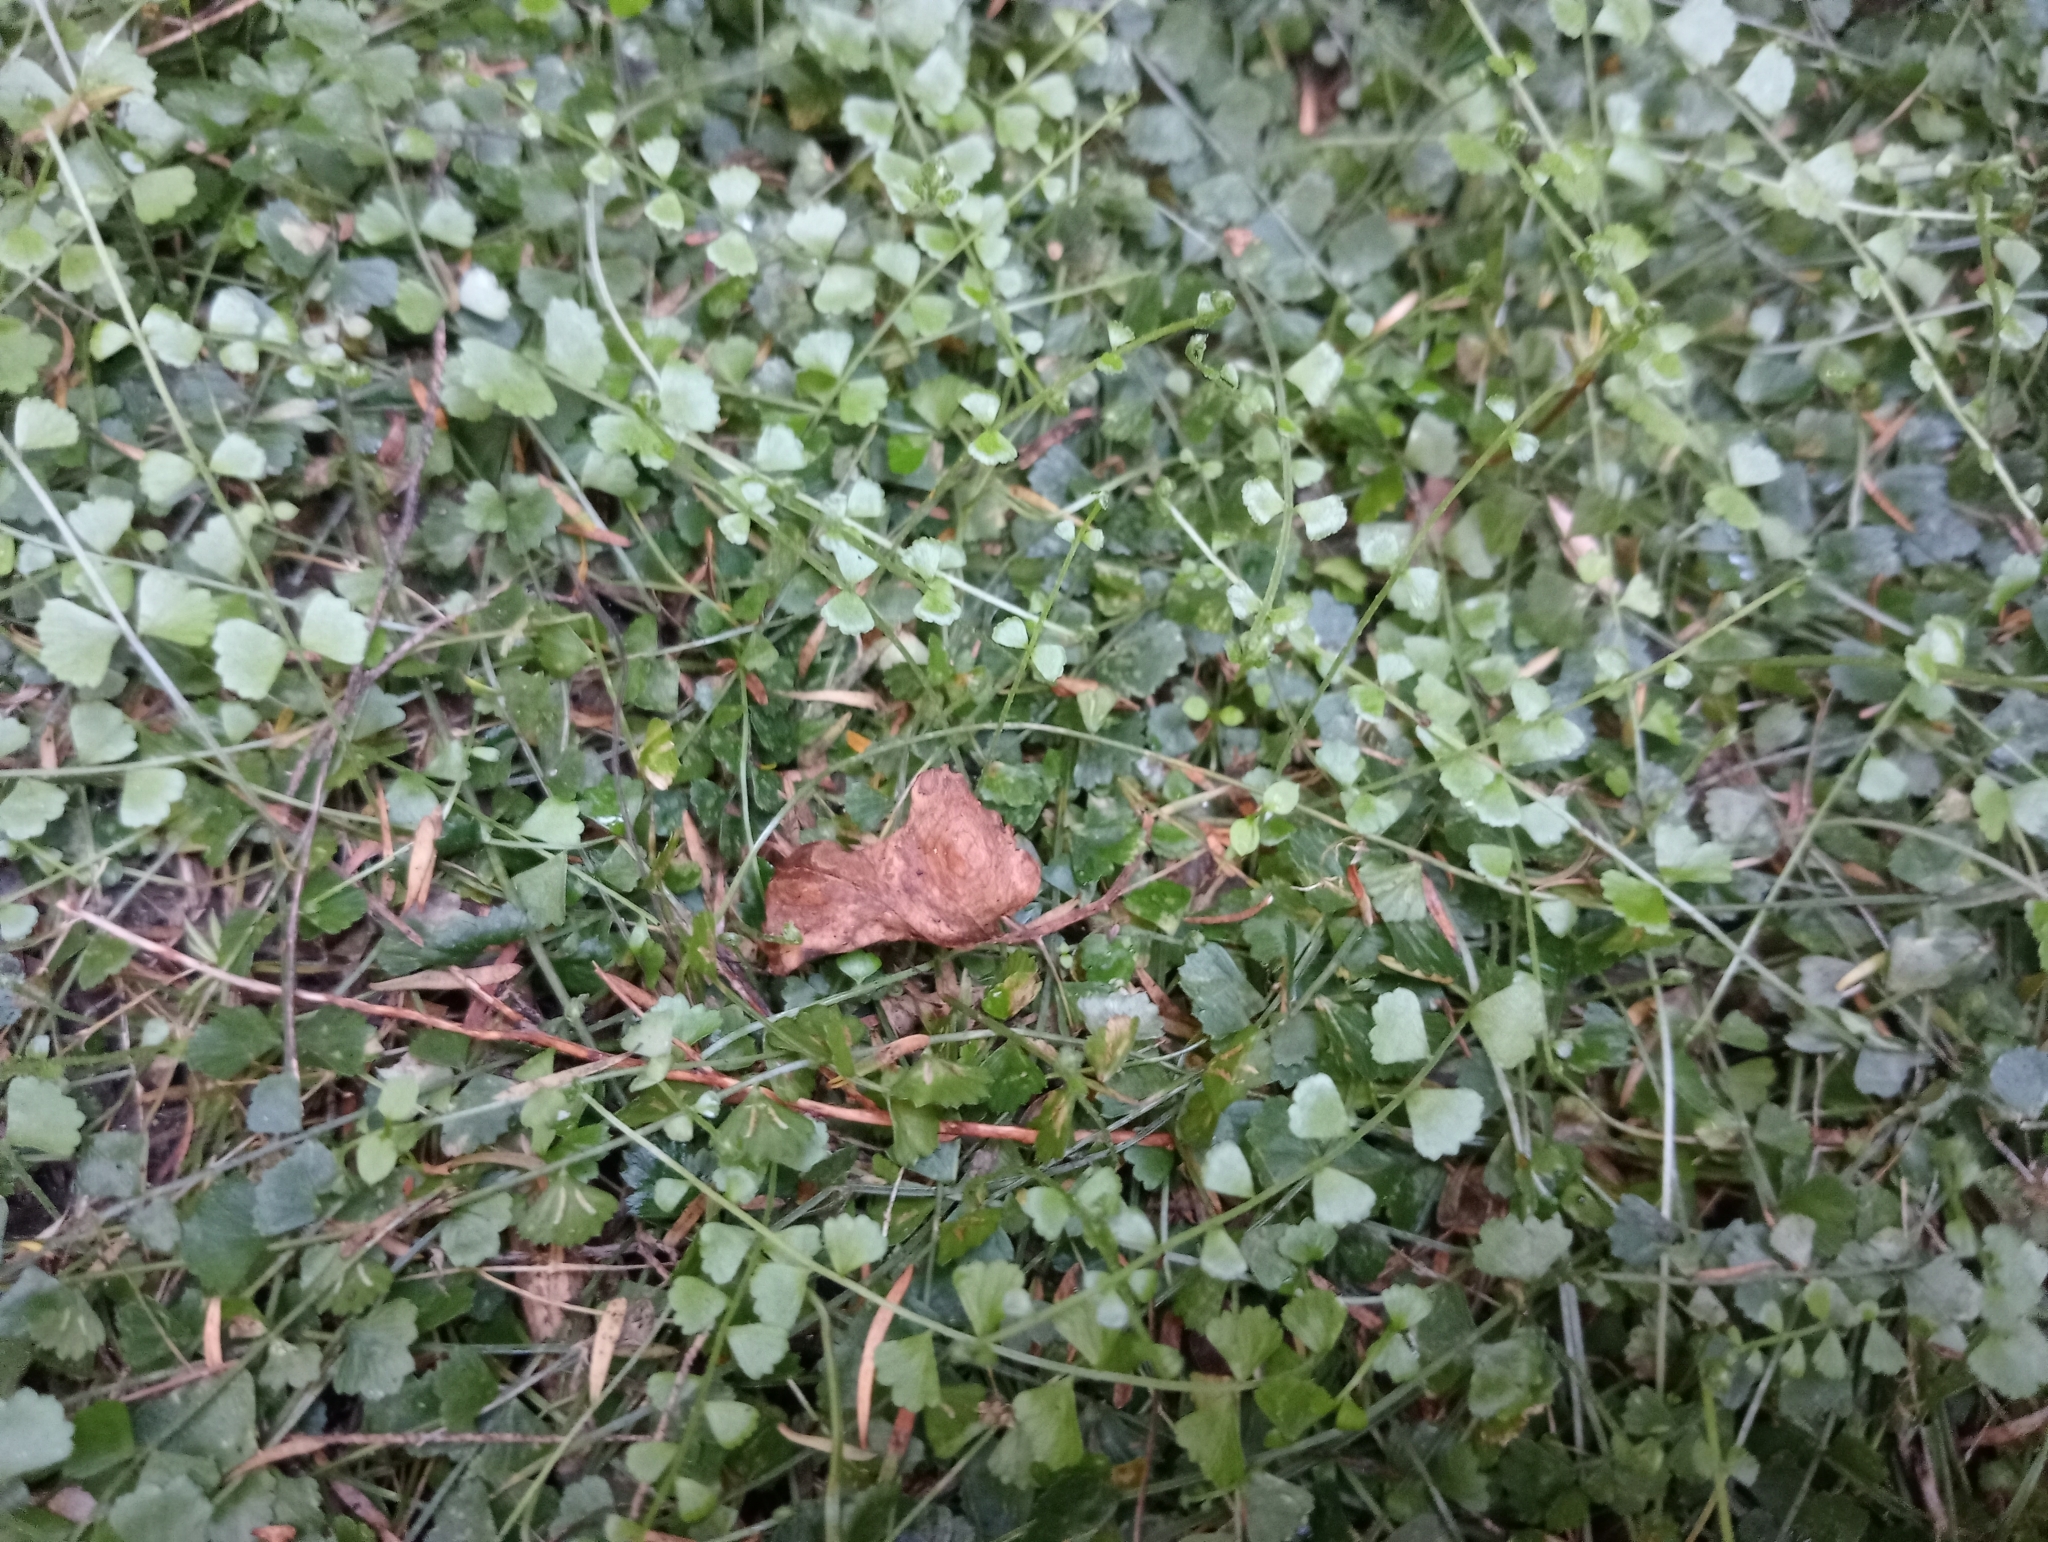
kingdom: Plantae
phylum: Tracheophyta
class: Polypodiopsida
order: Polypodiales
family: Aspleniaceae
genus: Asplenium
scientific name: Asplenium flabellifolium
